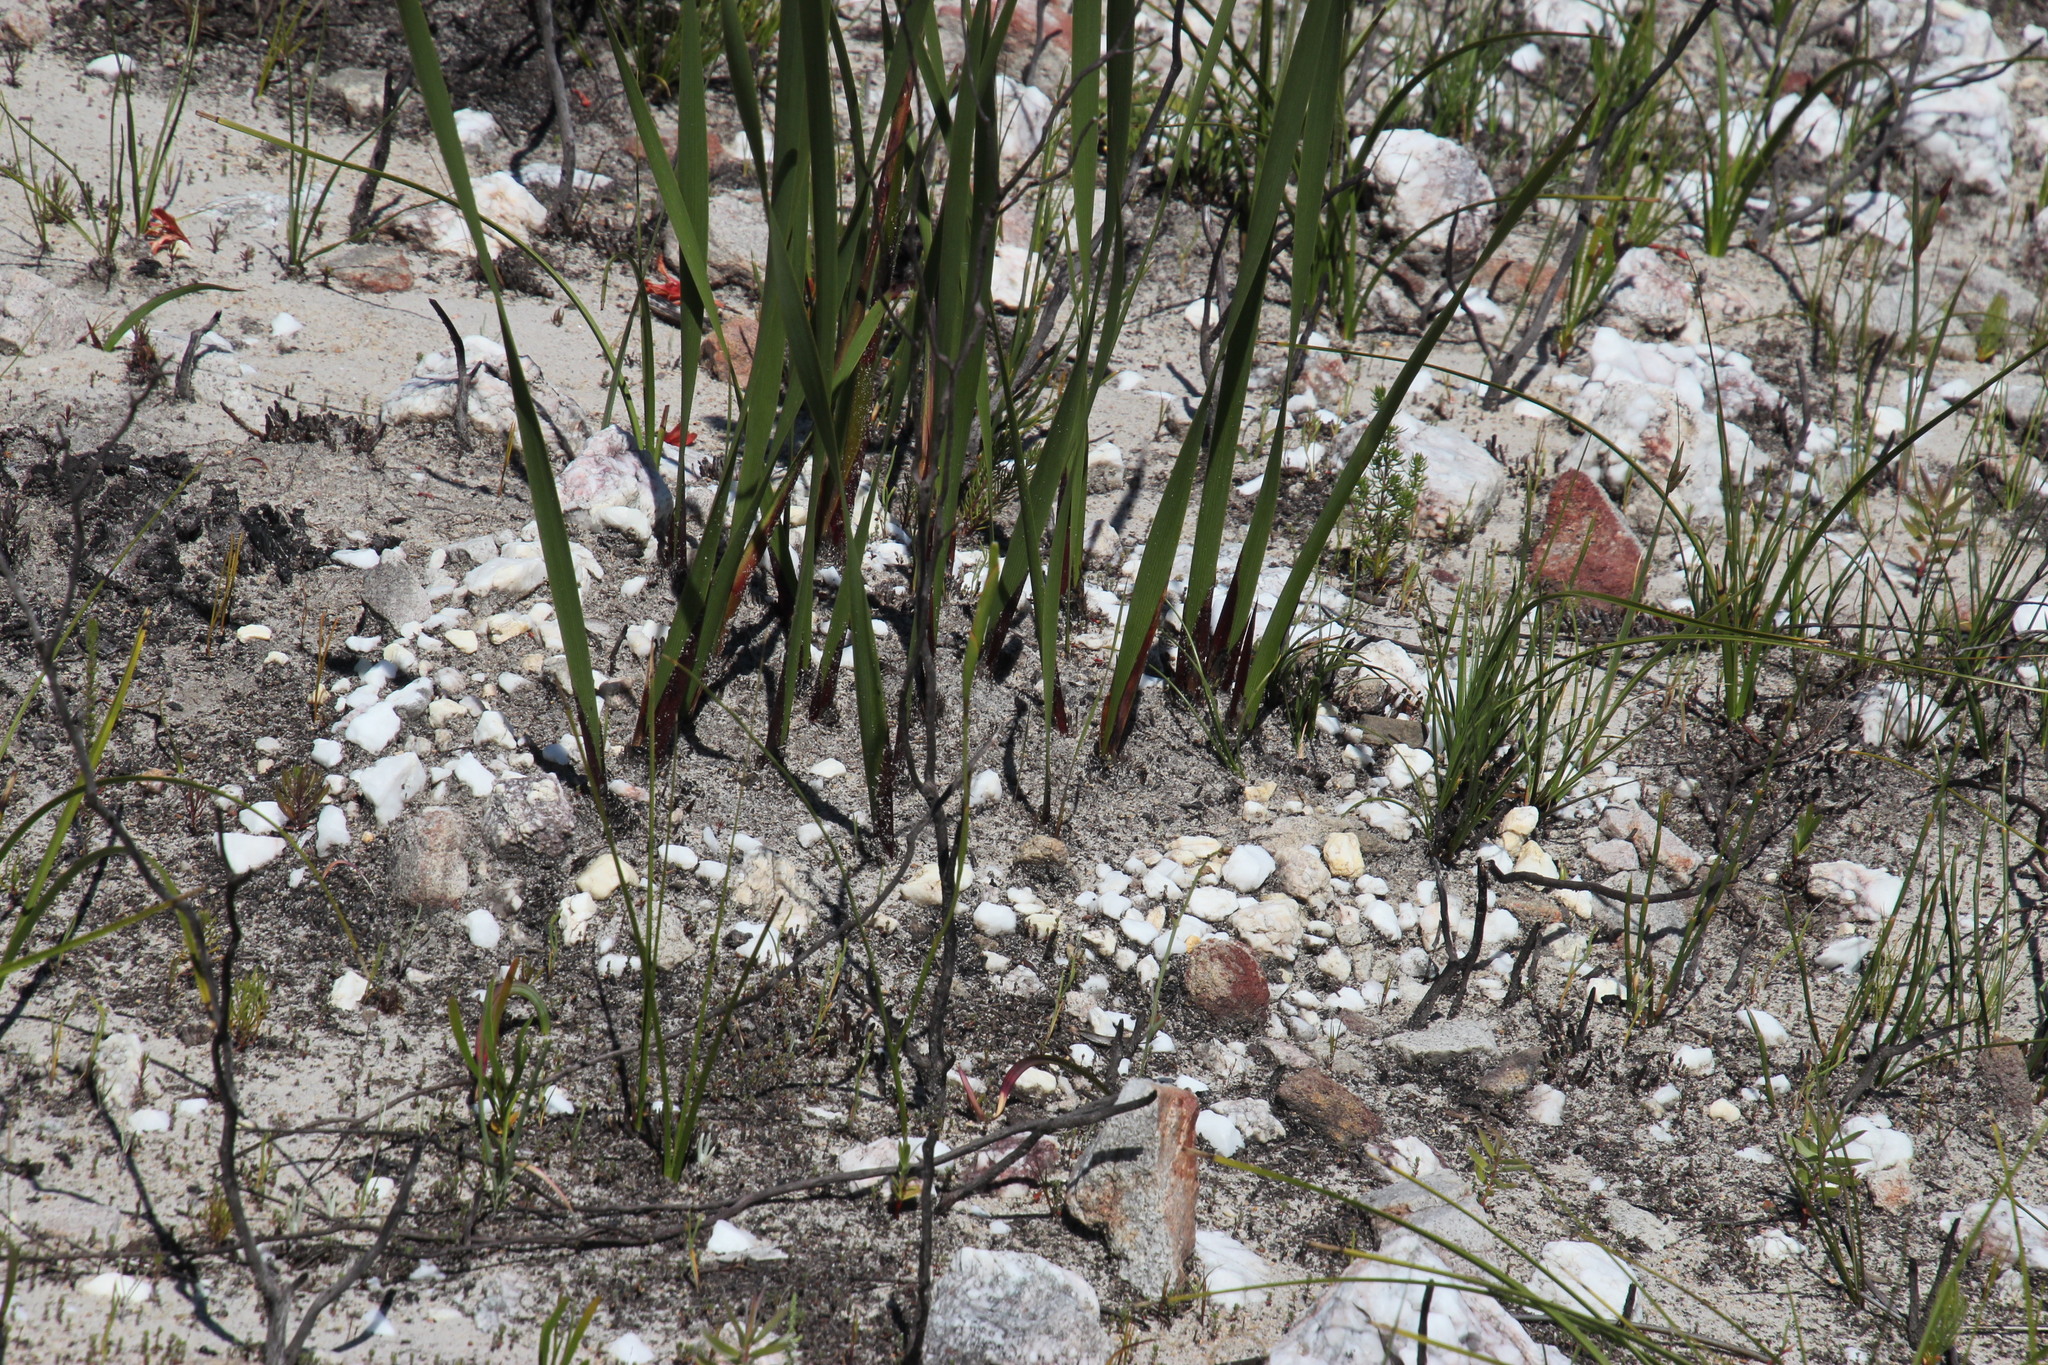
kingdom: Plantae
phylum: Tracheophyta
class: Liliopsida
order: Asparagales
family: Iridaceae
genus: Pillansia
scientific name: Pillansia templemannii
